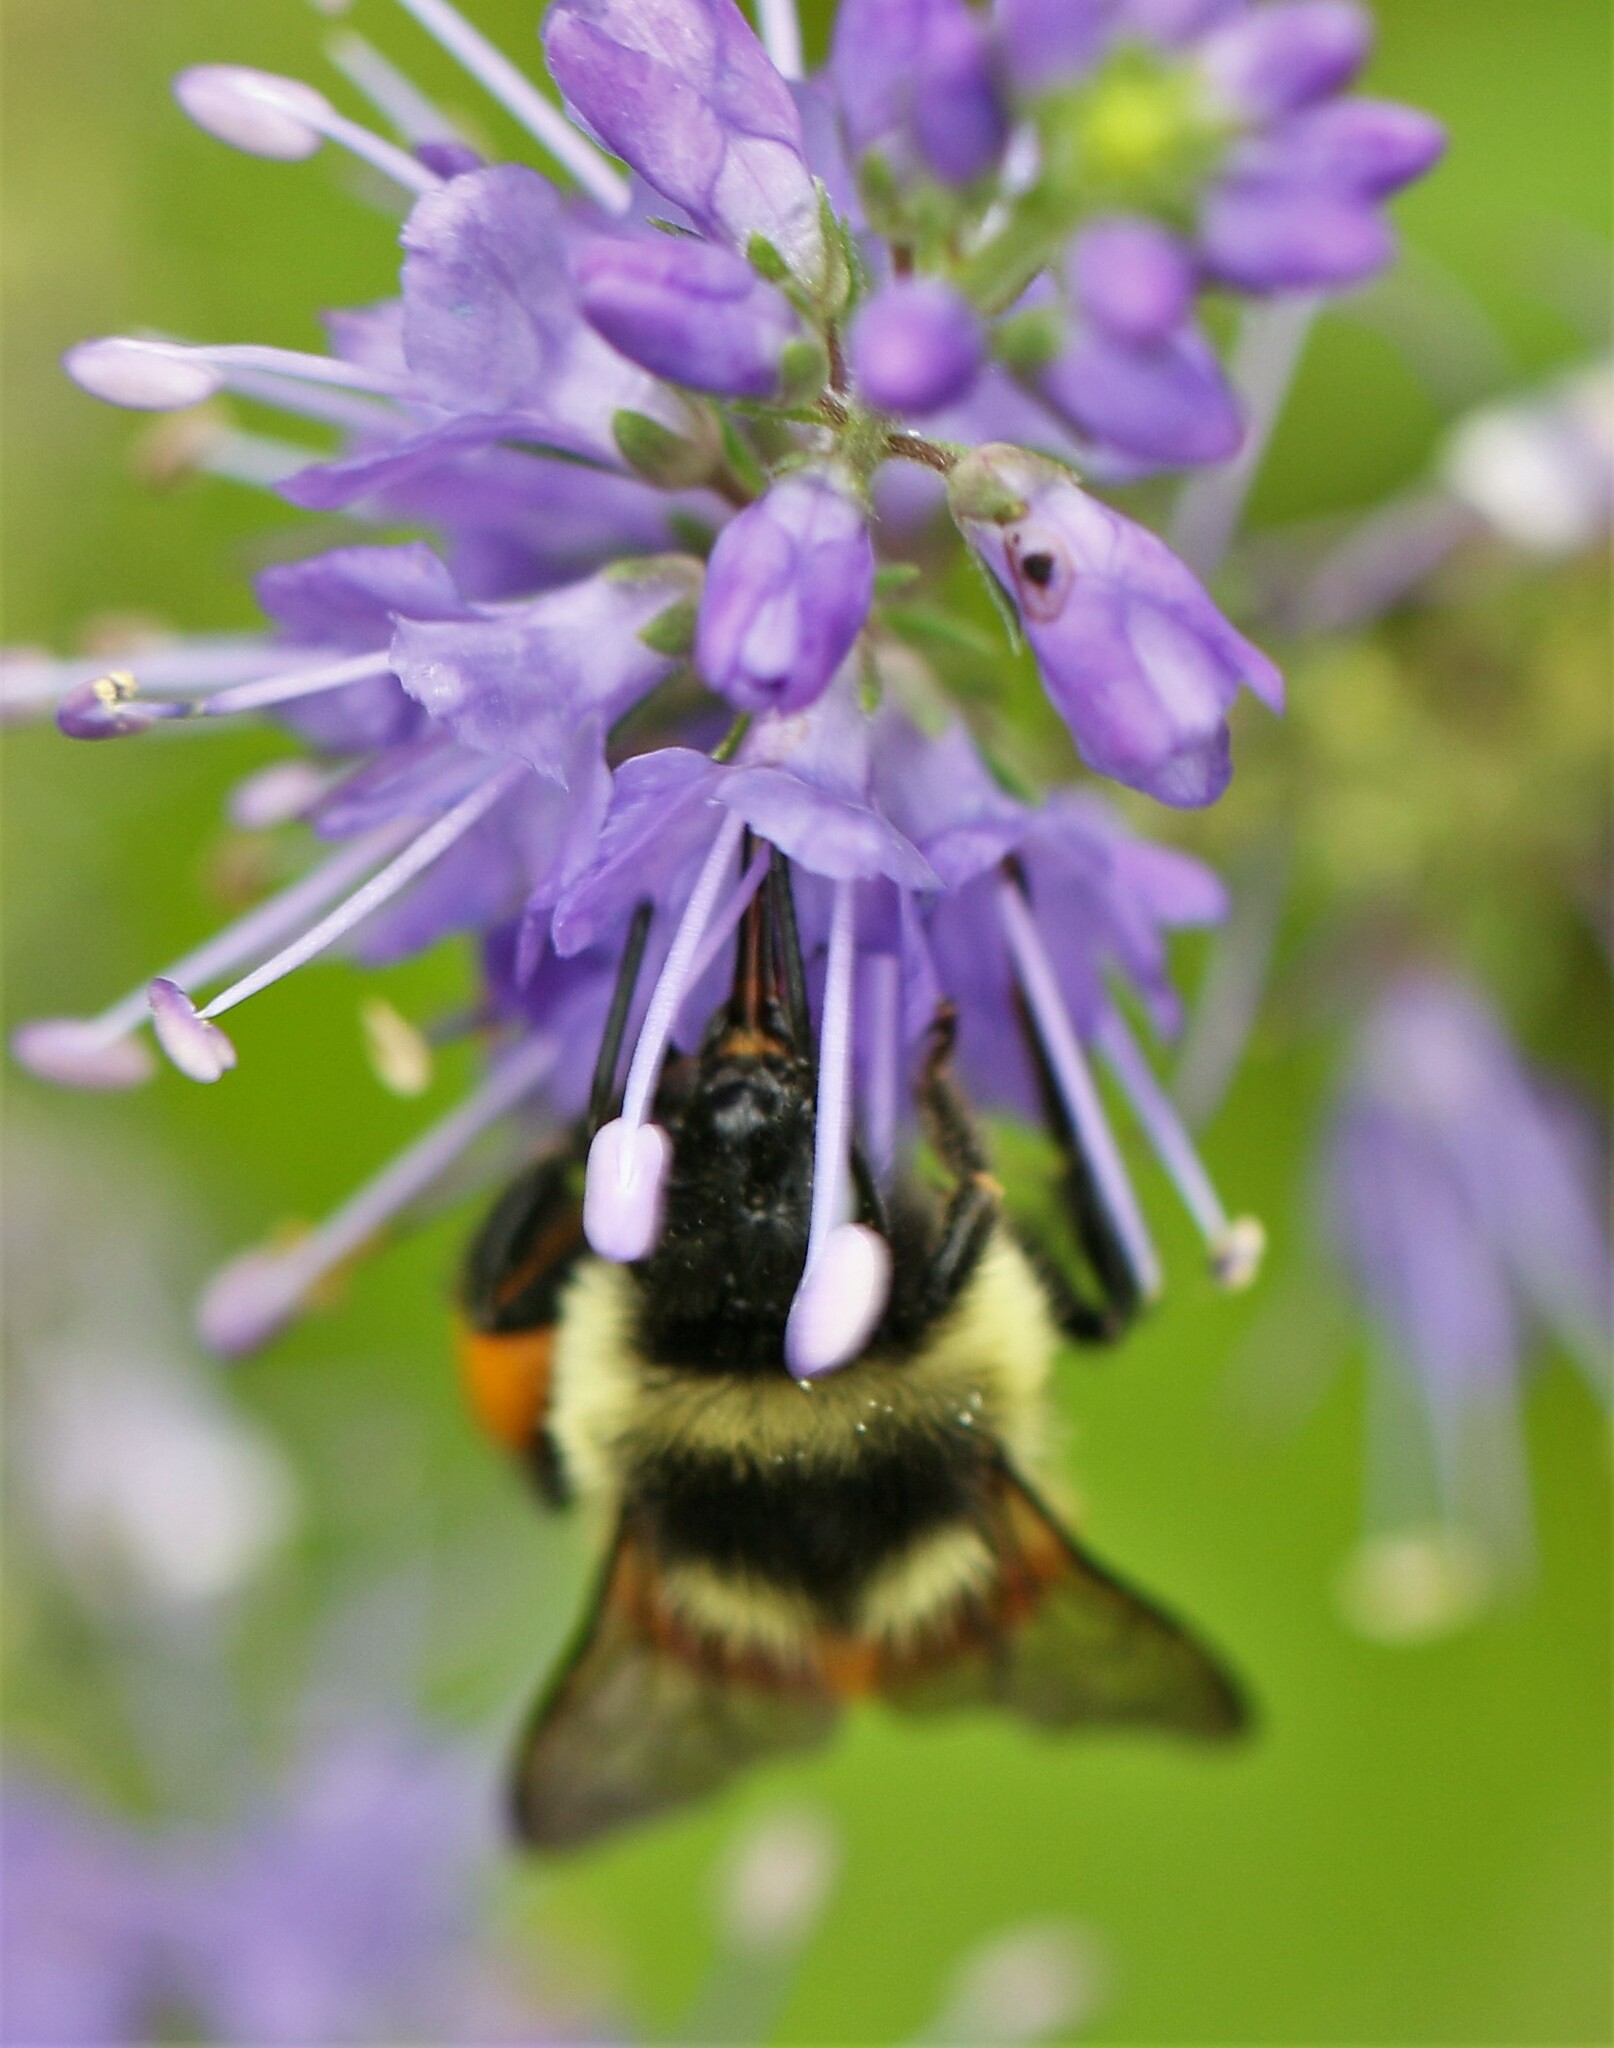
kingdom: Animalia
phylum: Arthropoda
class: Insecta
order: Hymenoptera
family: Apidae
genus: Bombus
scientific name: Bombus ternarius
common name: Tri-colored bumble bee
